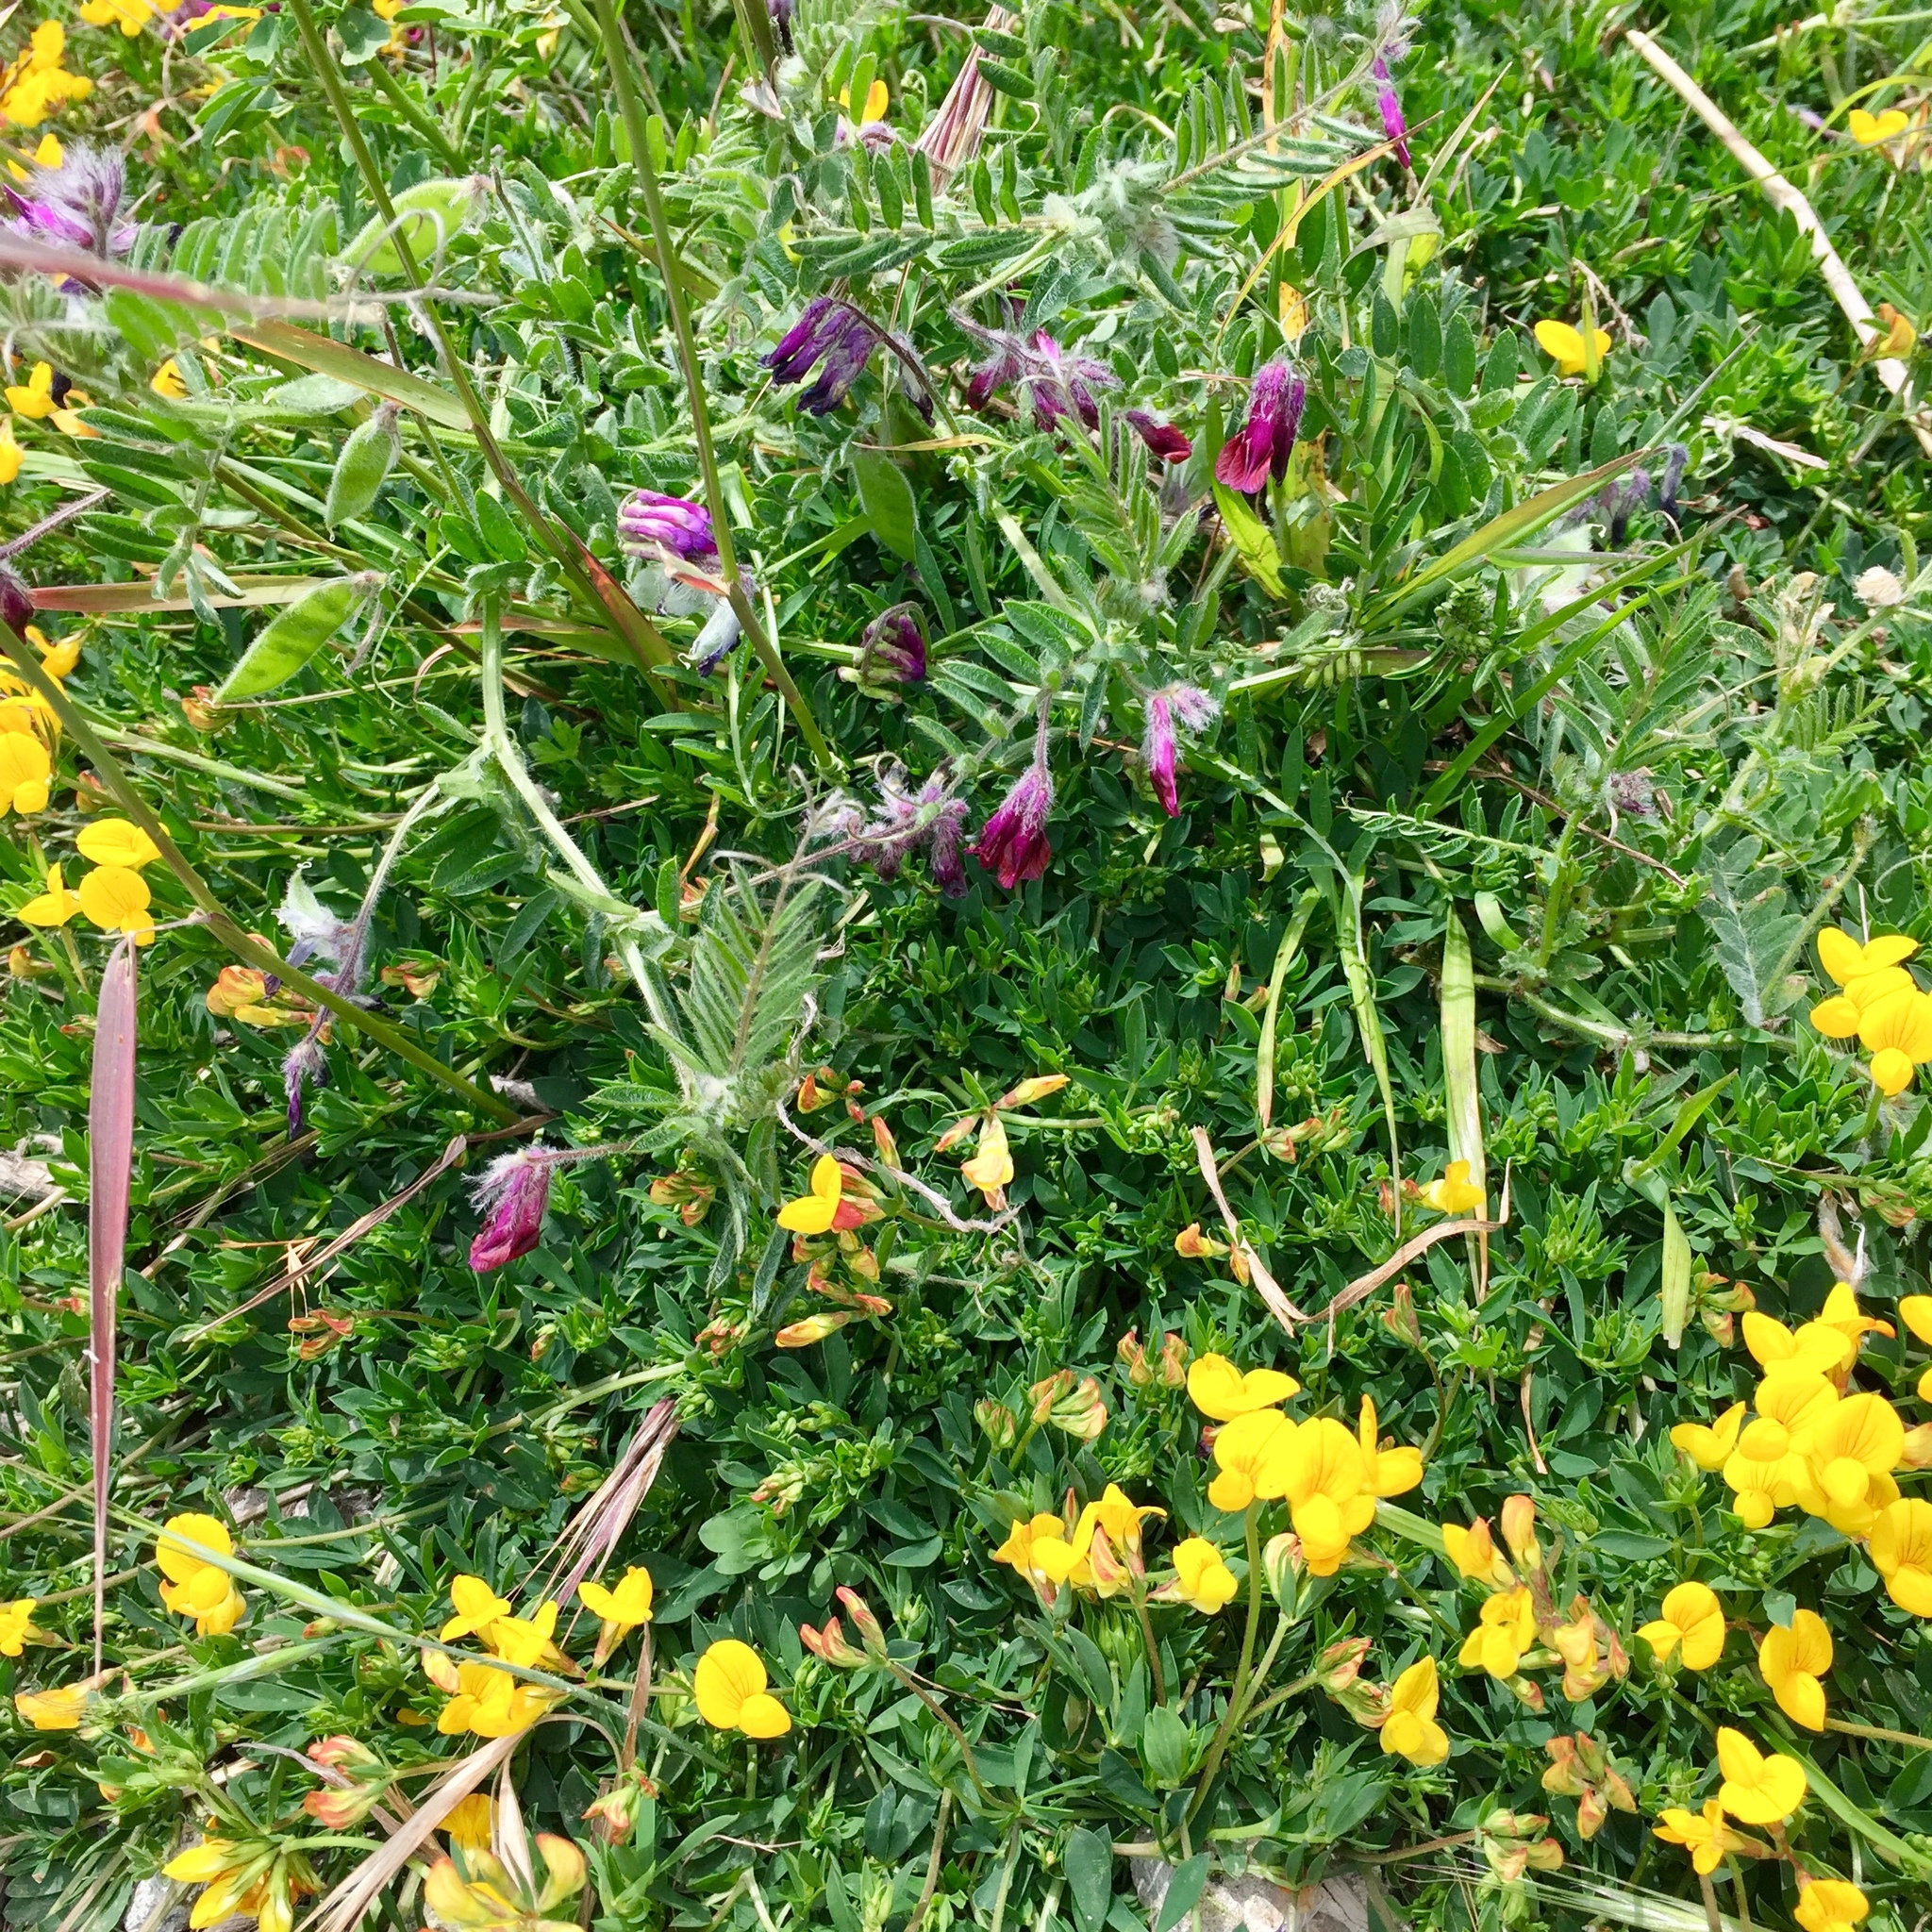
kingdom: Plantae
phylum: Tracheophyta
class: Magnoliopsida
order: Fabales
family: Fabaceae
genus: Vicia
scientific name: Vicia benghalensis
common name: Purple vetch
